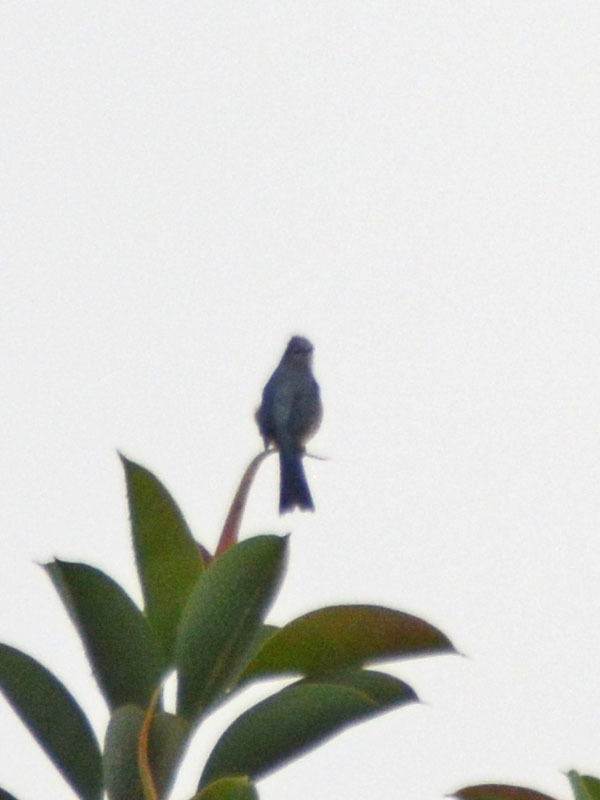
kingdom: Animalia
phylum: Chordata
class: Aves
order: Passeriformes
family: Ptilogonatidae
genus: Ptilogonys
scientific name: Ptilogonys cinereus
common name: Gray silky-flycatcher
